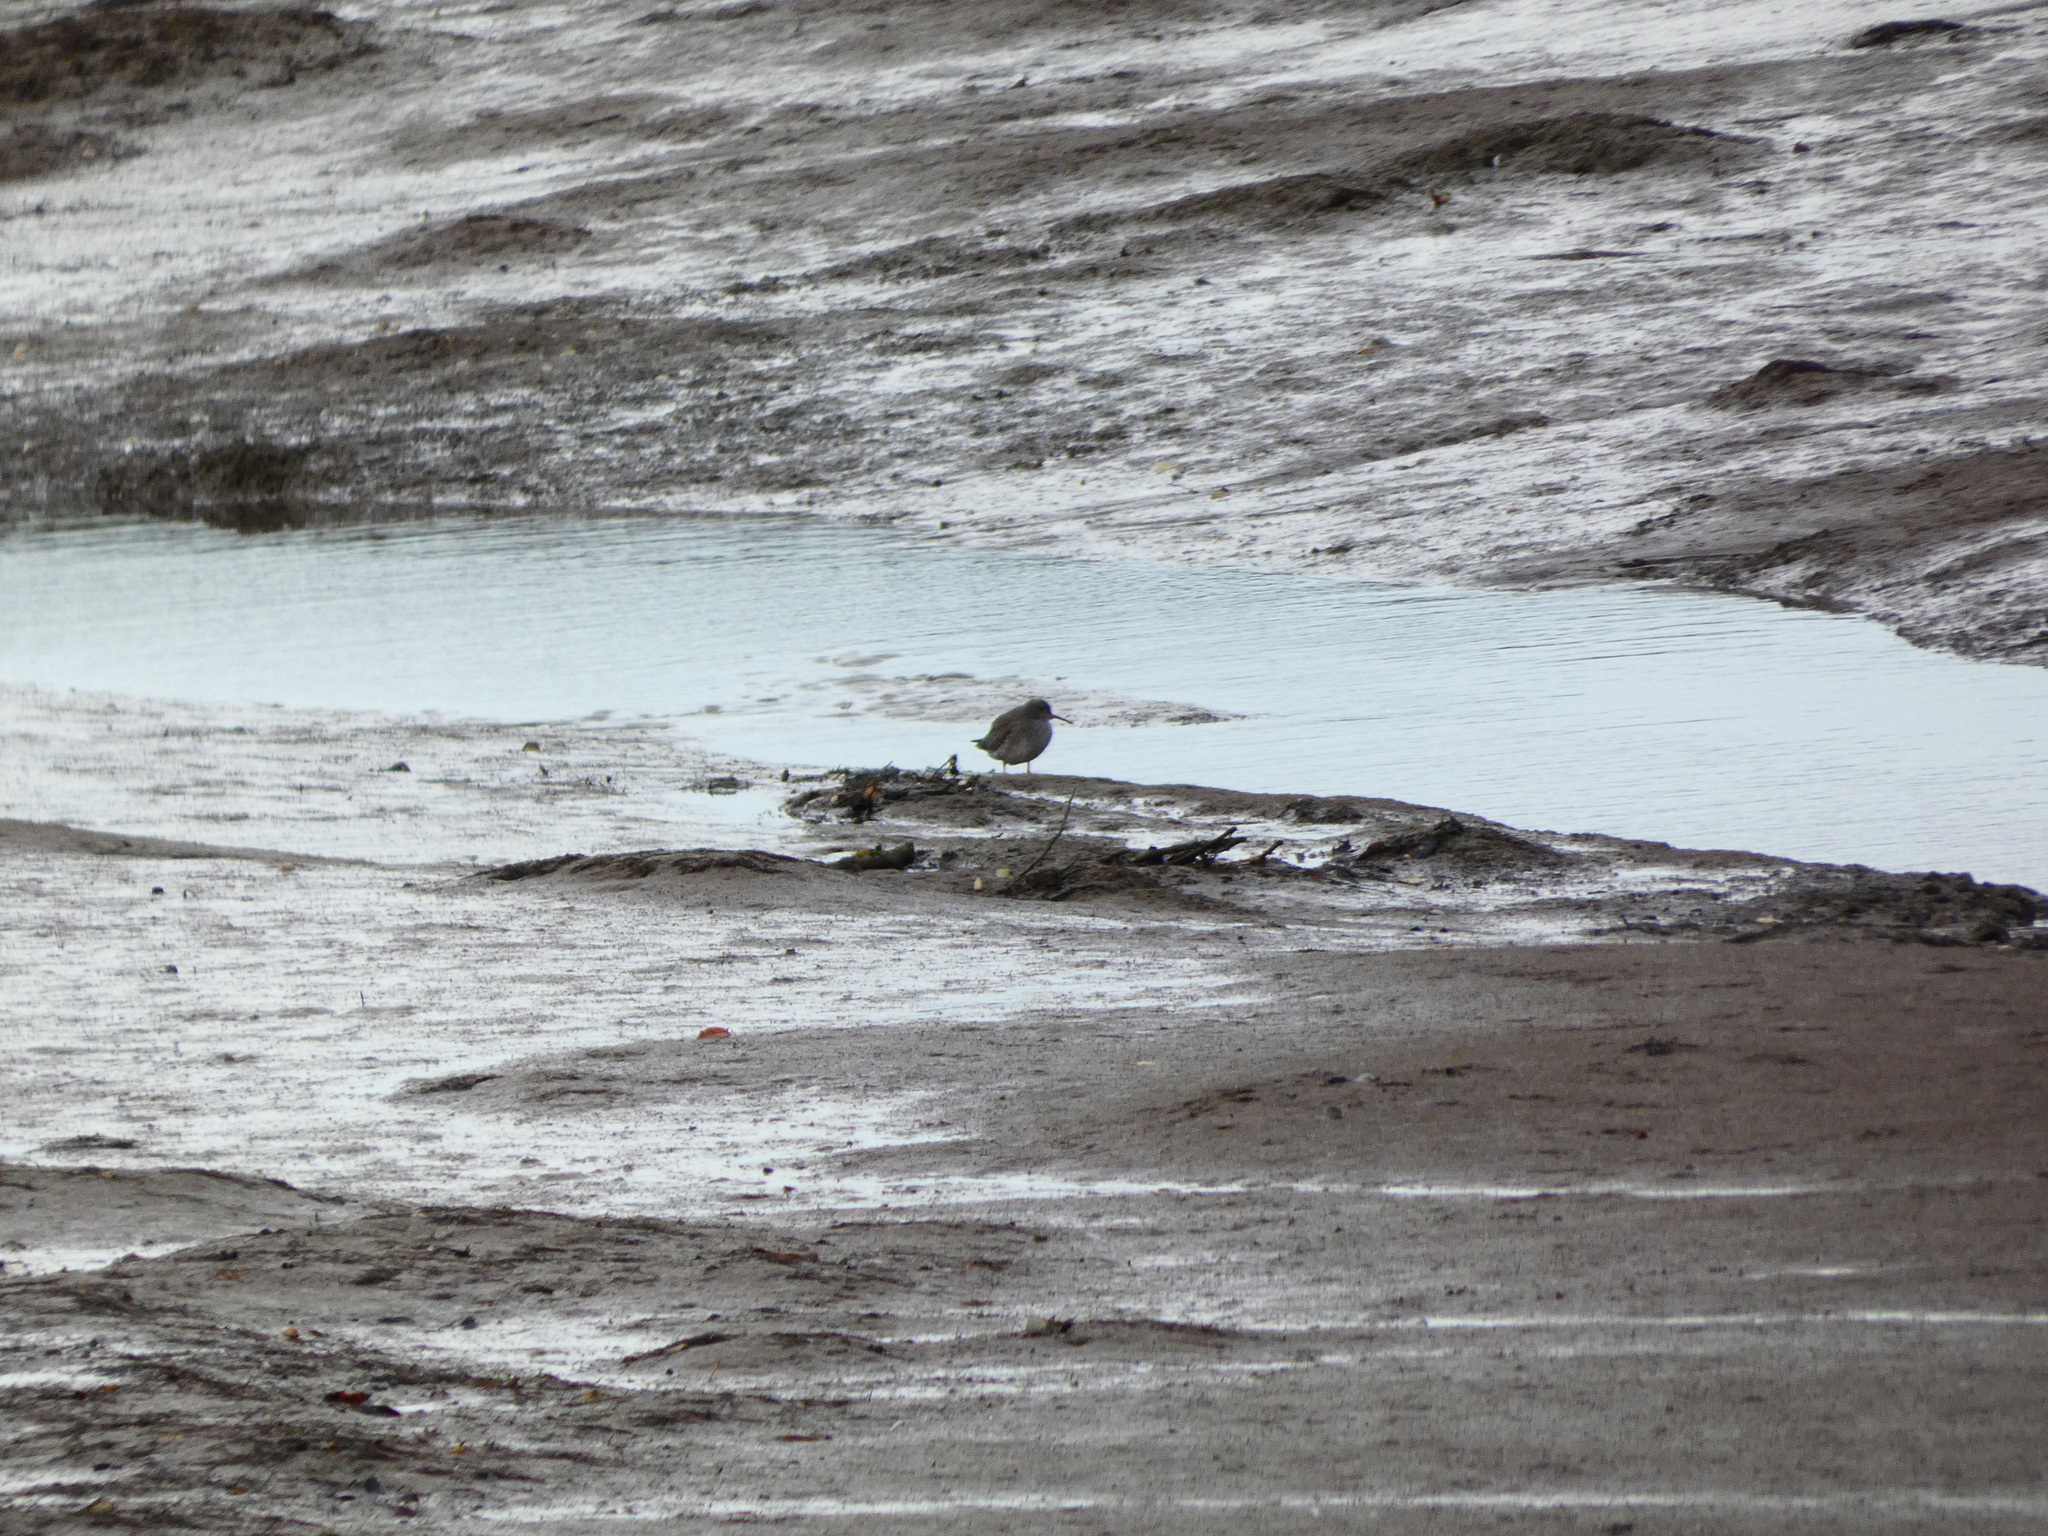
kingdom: Animalia
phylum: Chordata
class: Aves
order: Charadriiformes
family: Scolopacidae
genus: Tringa
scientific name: Tringa totanus
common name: Common redshank
